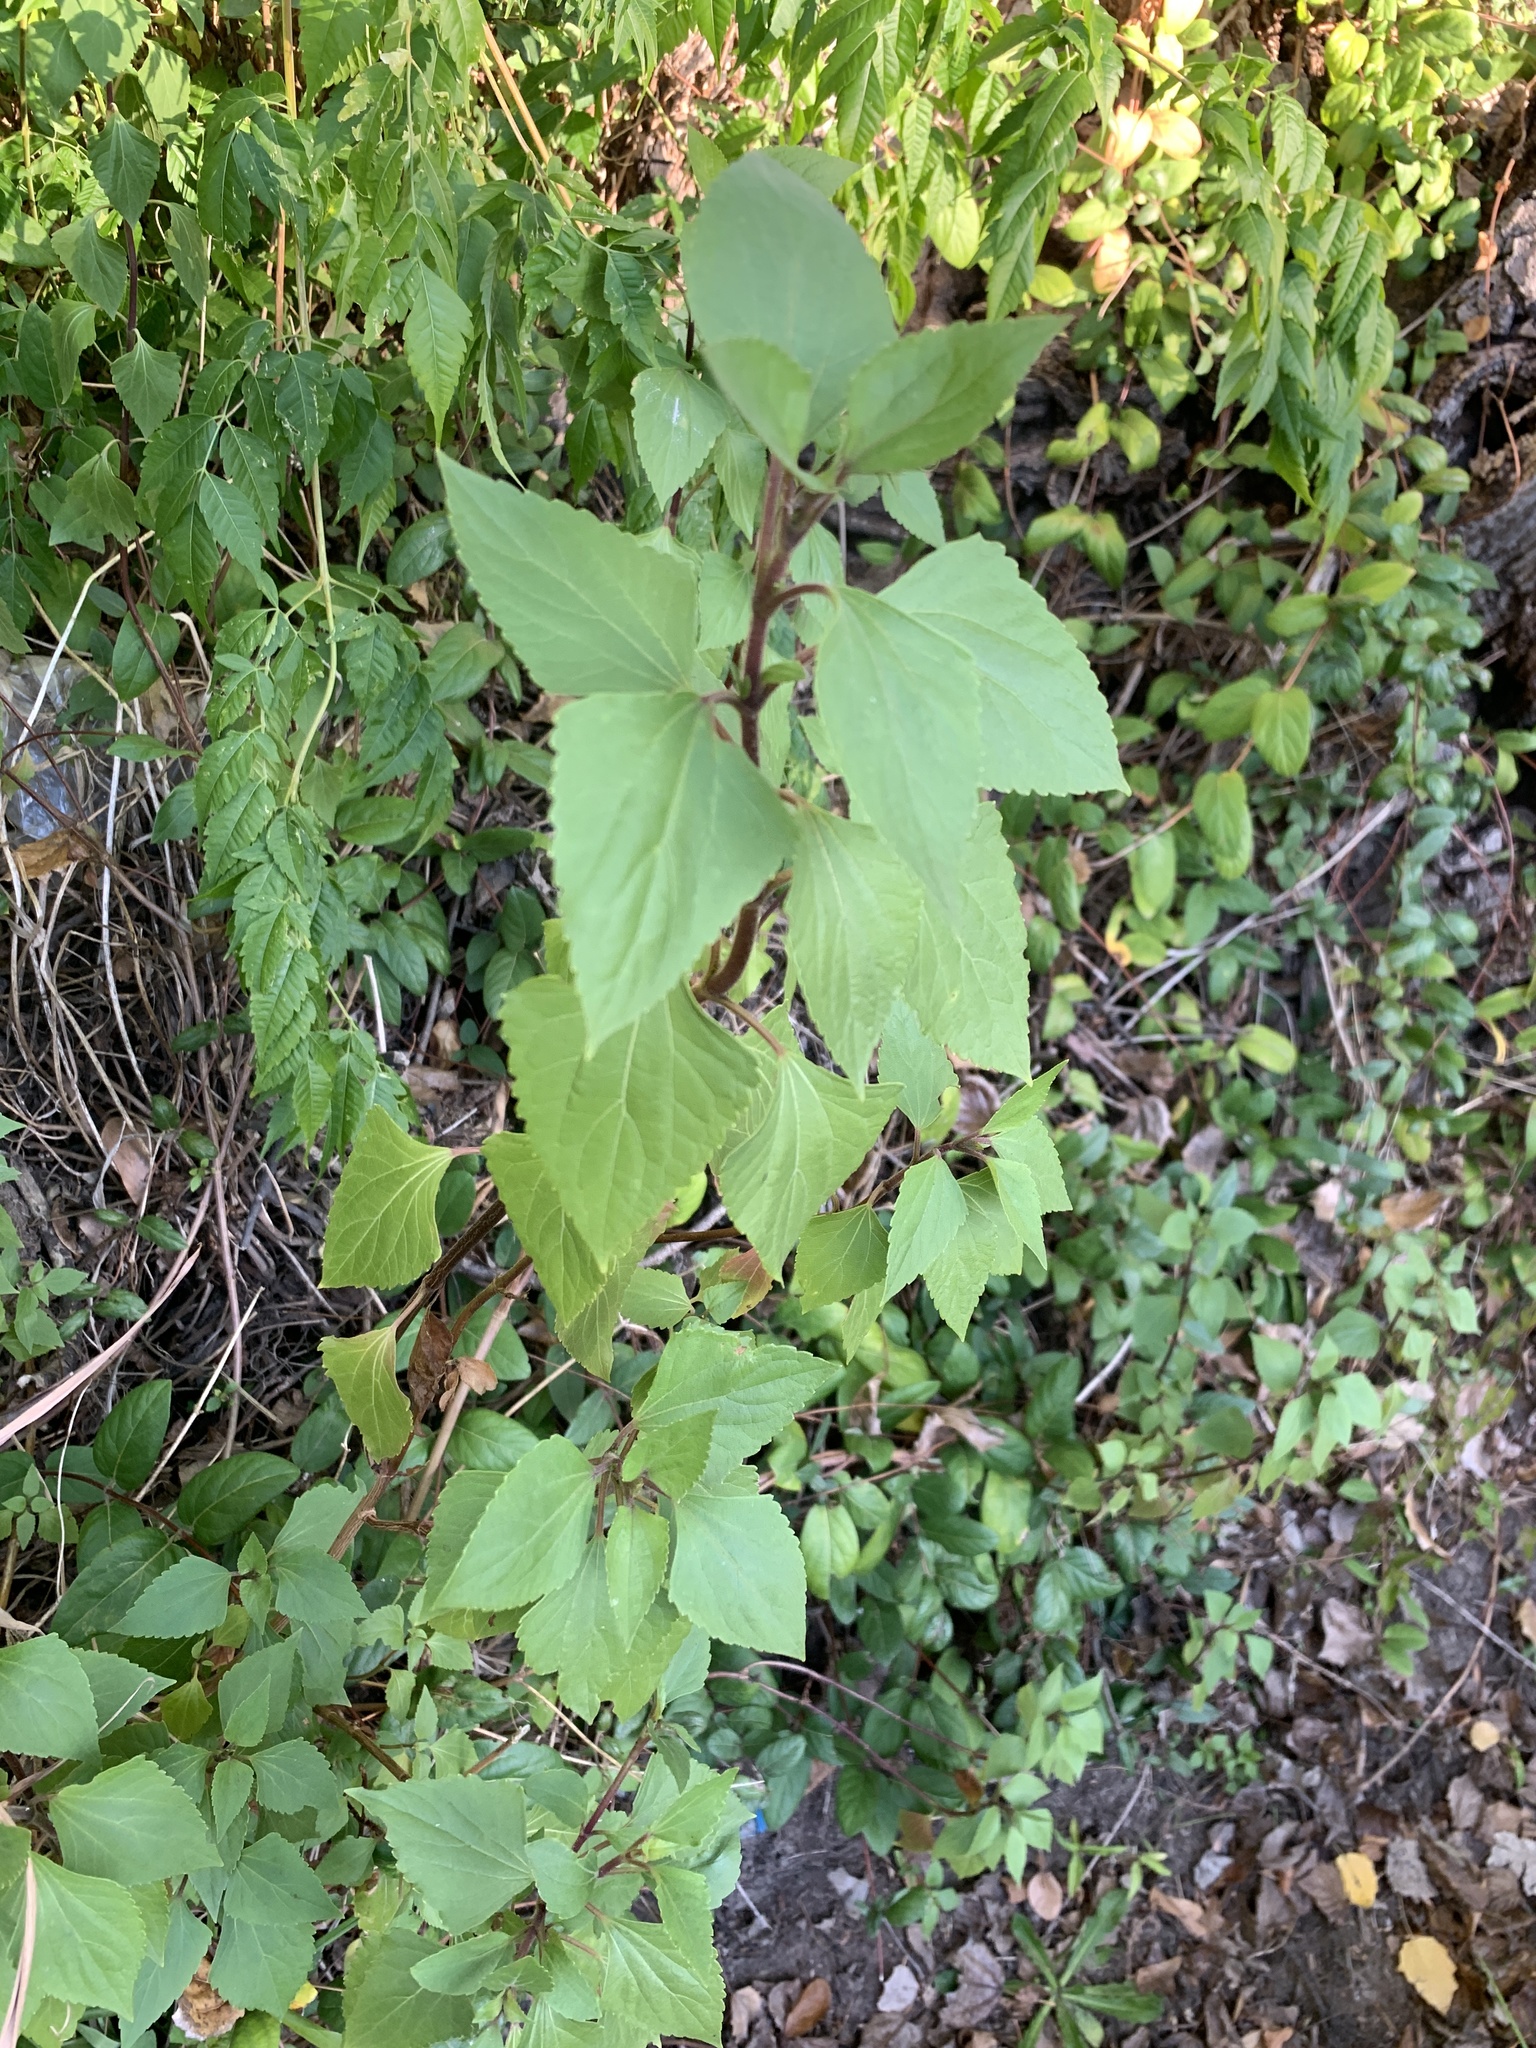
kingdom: Plantae
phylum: Tracheophyta
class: Magnoliopsida
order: Asterales
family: Asteraceae
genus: Ageratina
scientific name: Ageratina adenophora
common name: Sticky snakeroot
